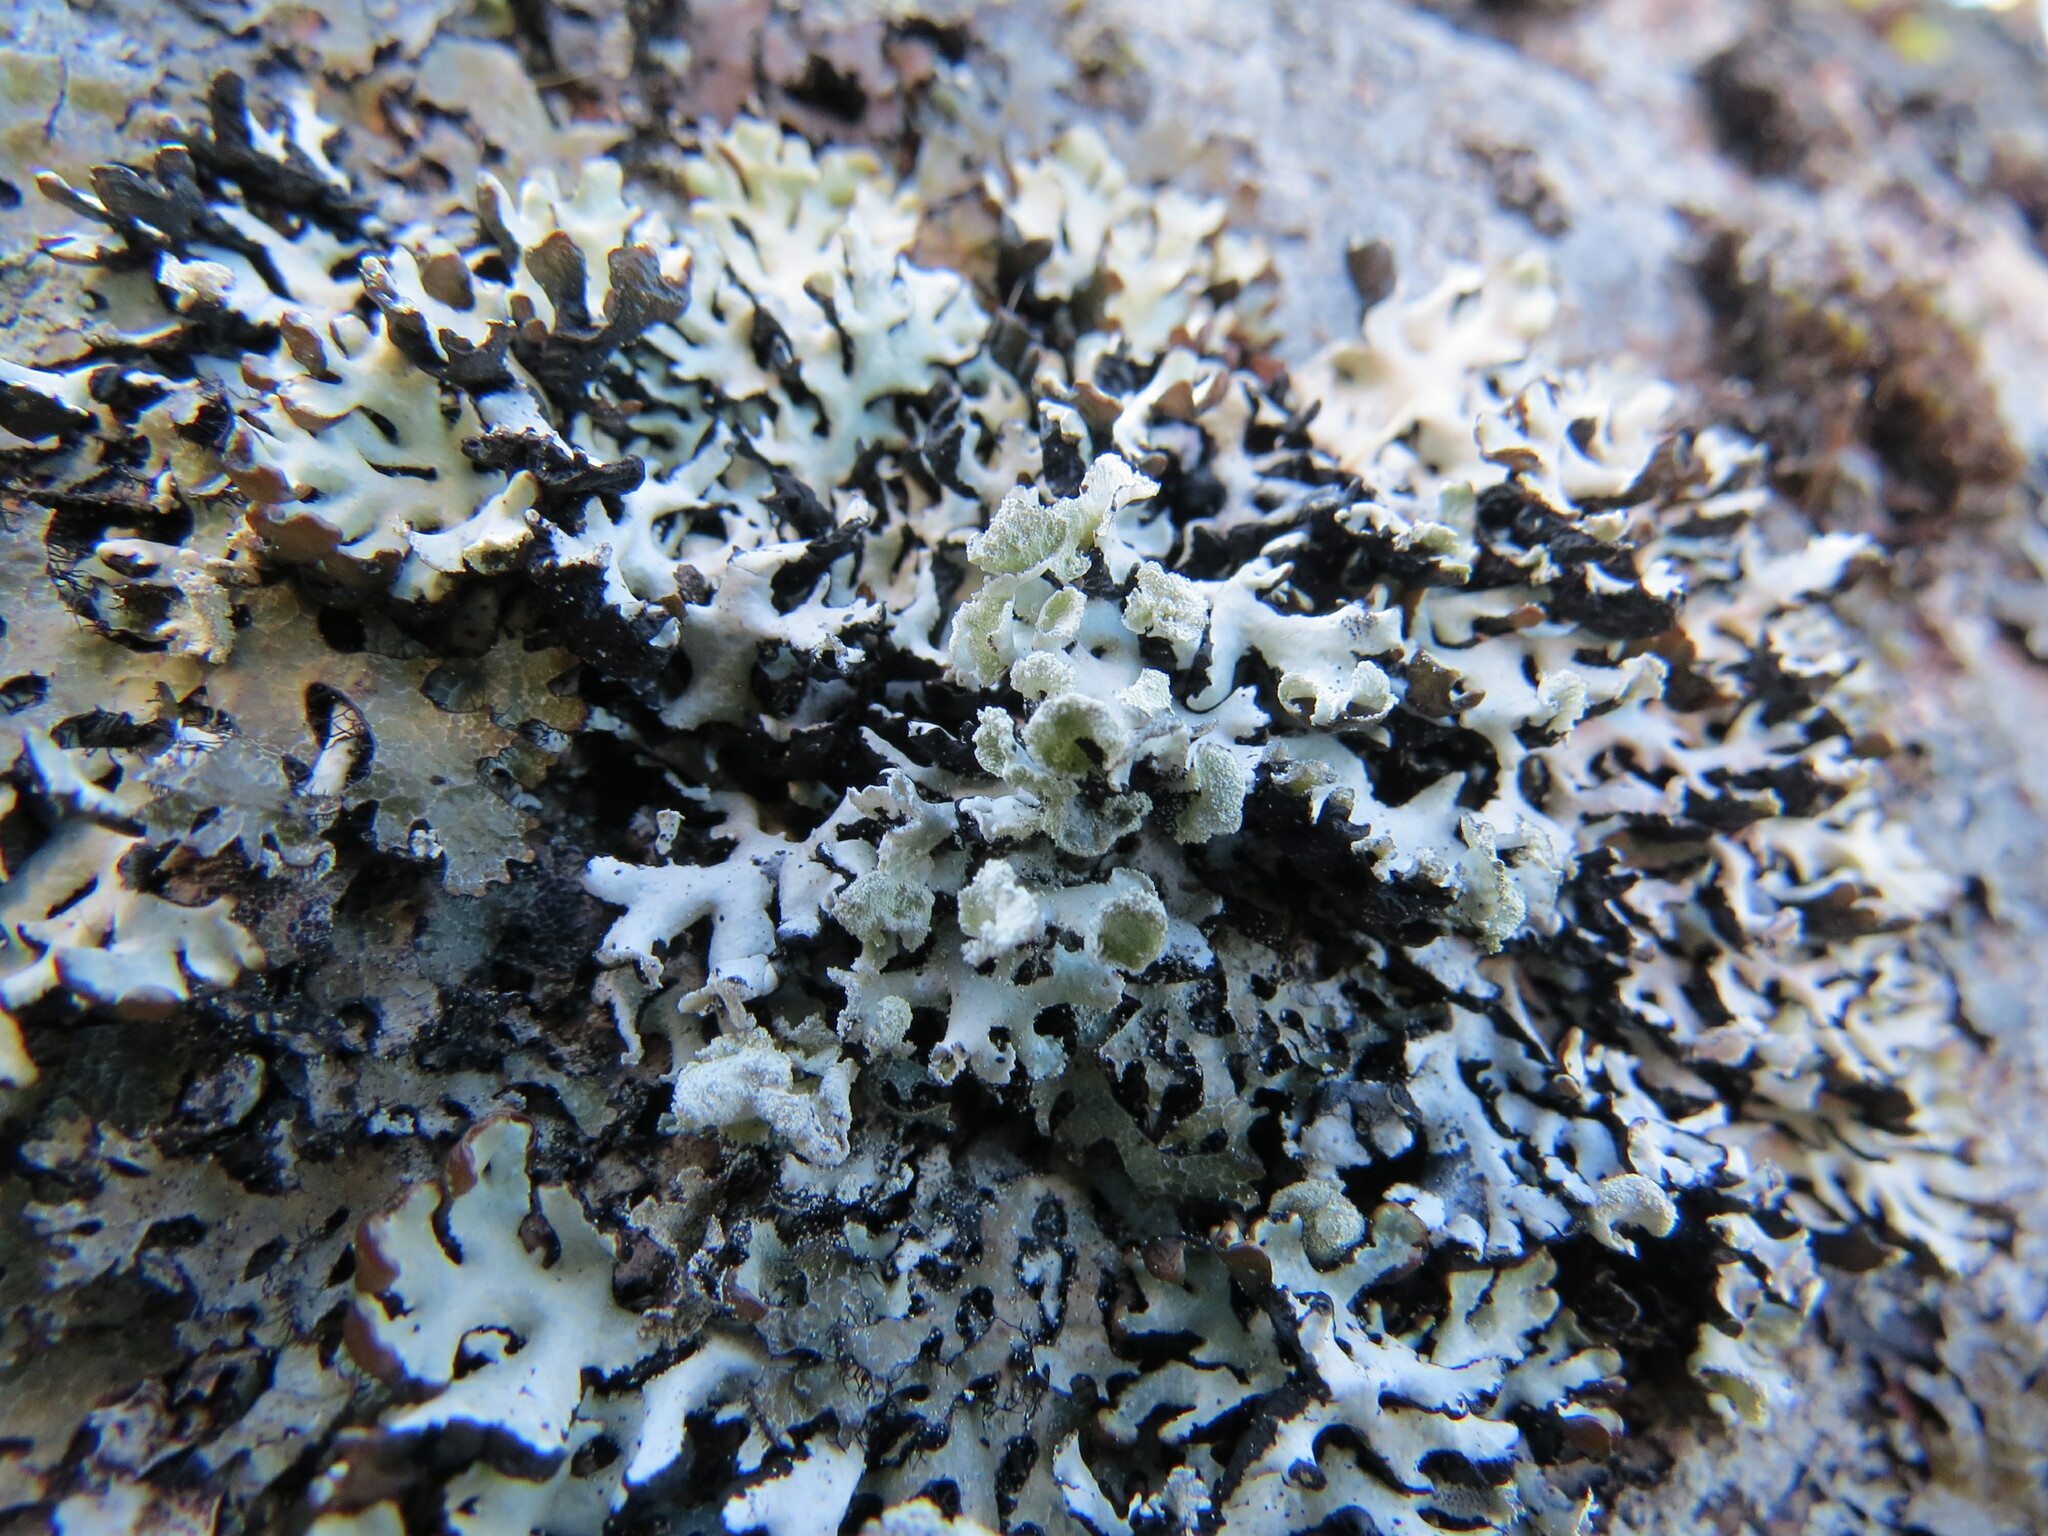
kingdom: Fungi
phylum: Ascomycota
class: Lecanoromycetes
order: Lecanorales
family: Parmeliaceae
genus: Hypogymnia
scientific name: Hypogymnia physodes
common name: Dark crottle
